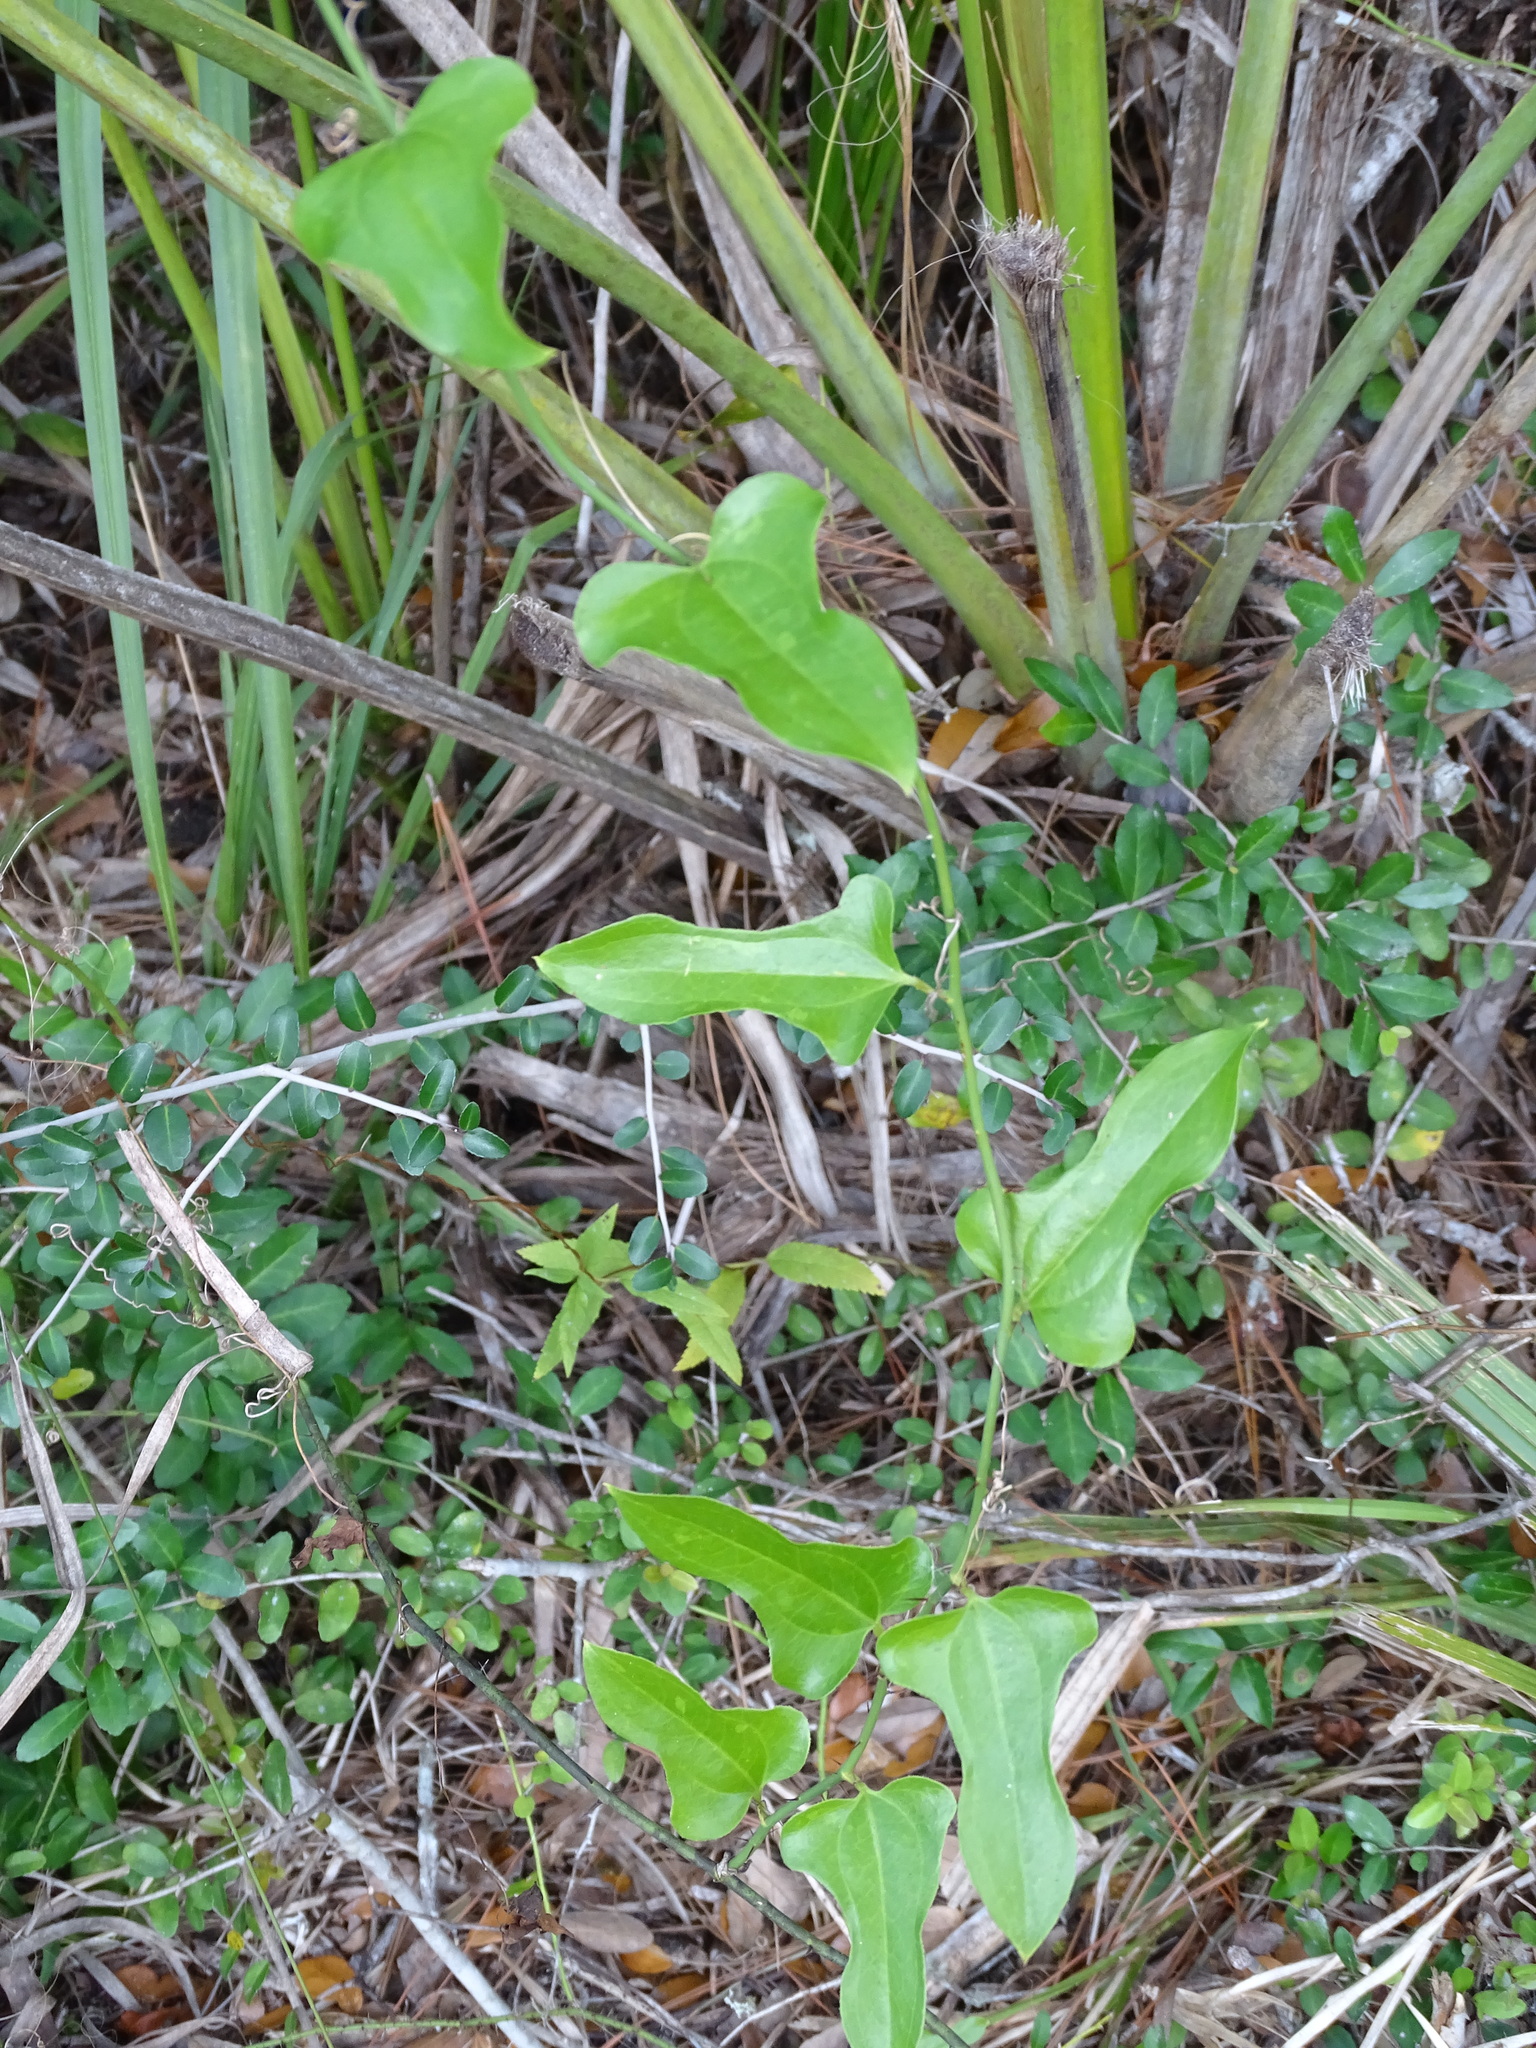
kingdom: Plantae
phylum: Tracheophyta
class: Liliopsida
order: Liliales
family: Smilacaceae
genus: Smilax
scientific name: Smilax tamnoides
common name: Hellfetter
